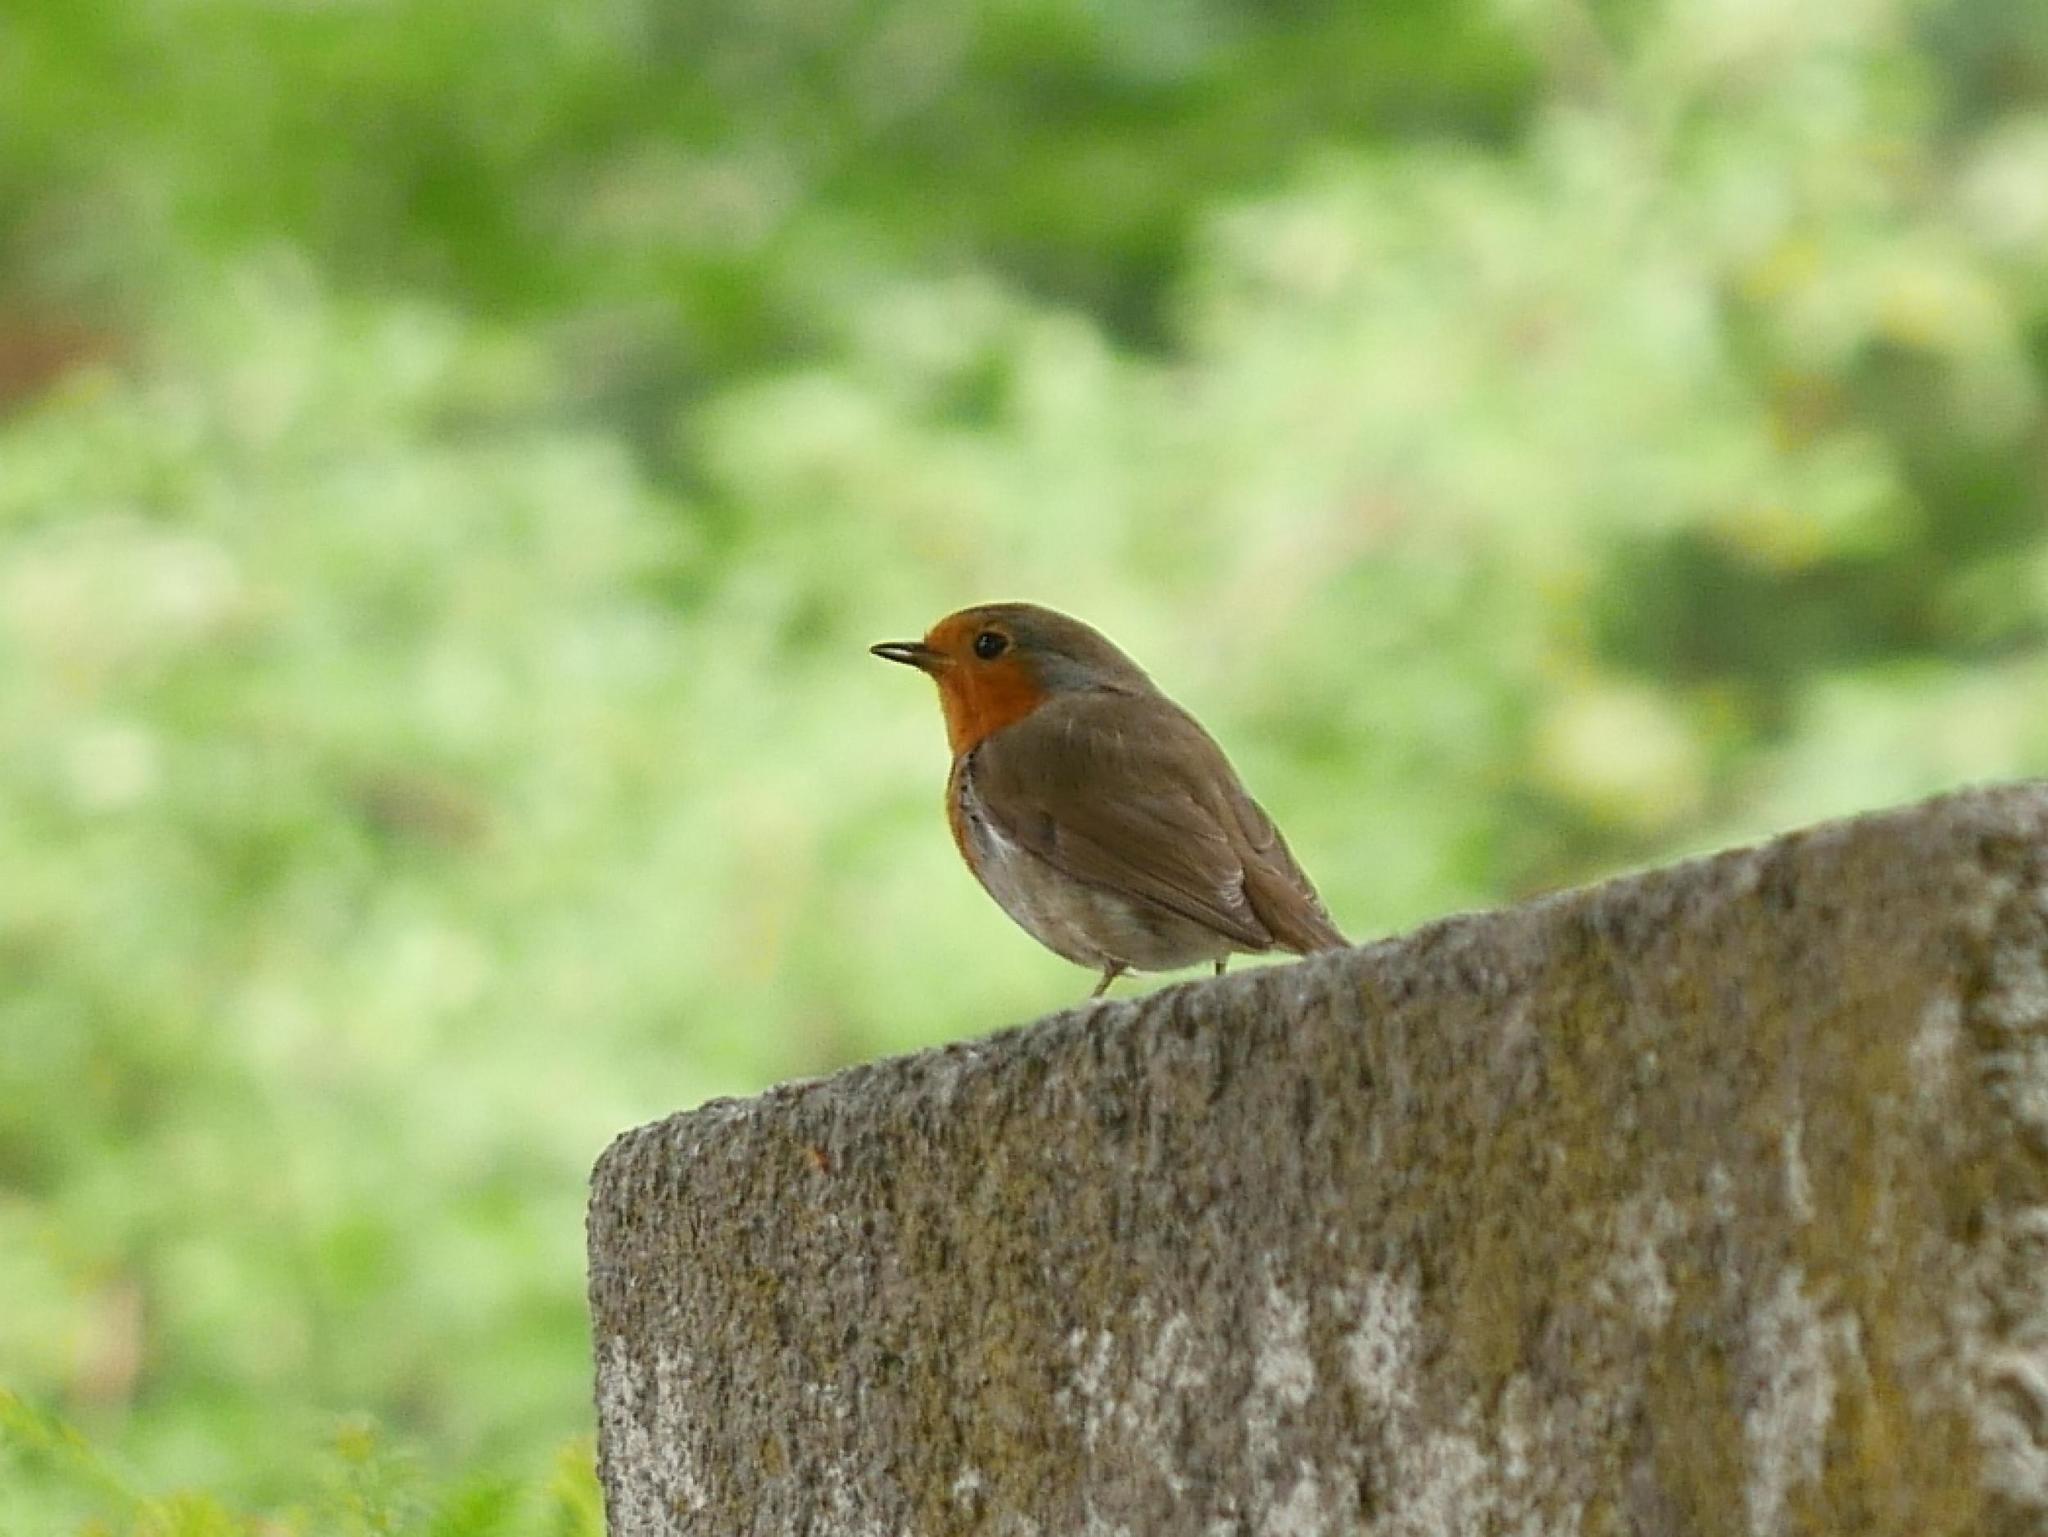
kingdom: Animalia
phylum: Chordata
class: Aves
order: Passeriformes
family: Muscicapidae
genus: Erithacus
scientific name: Erithacus rubecula
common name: European robin
